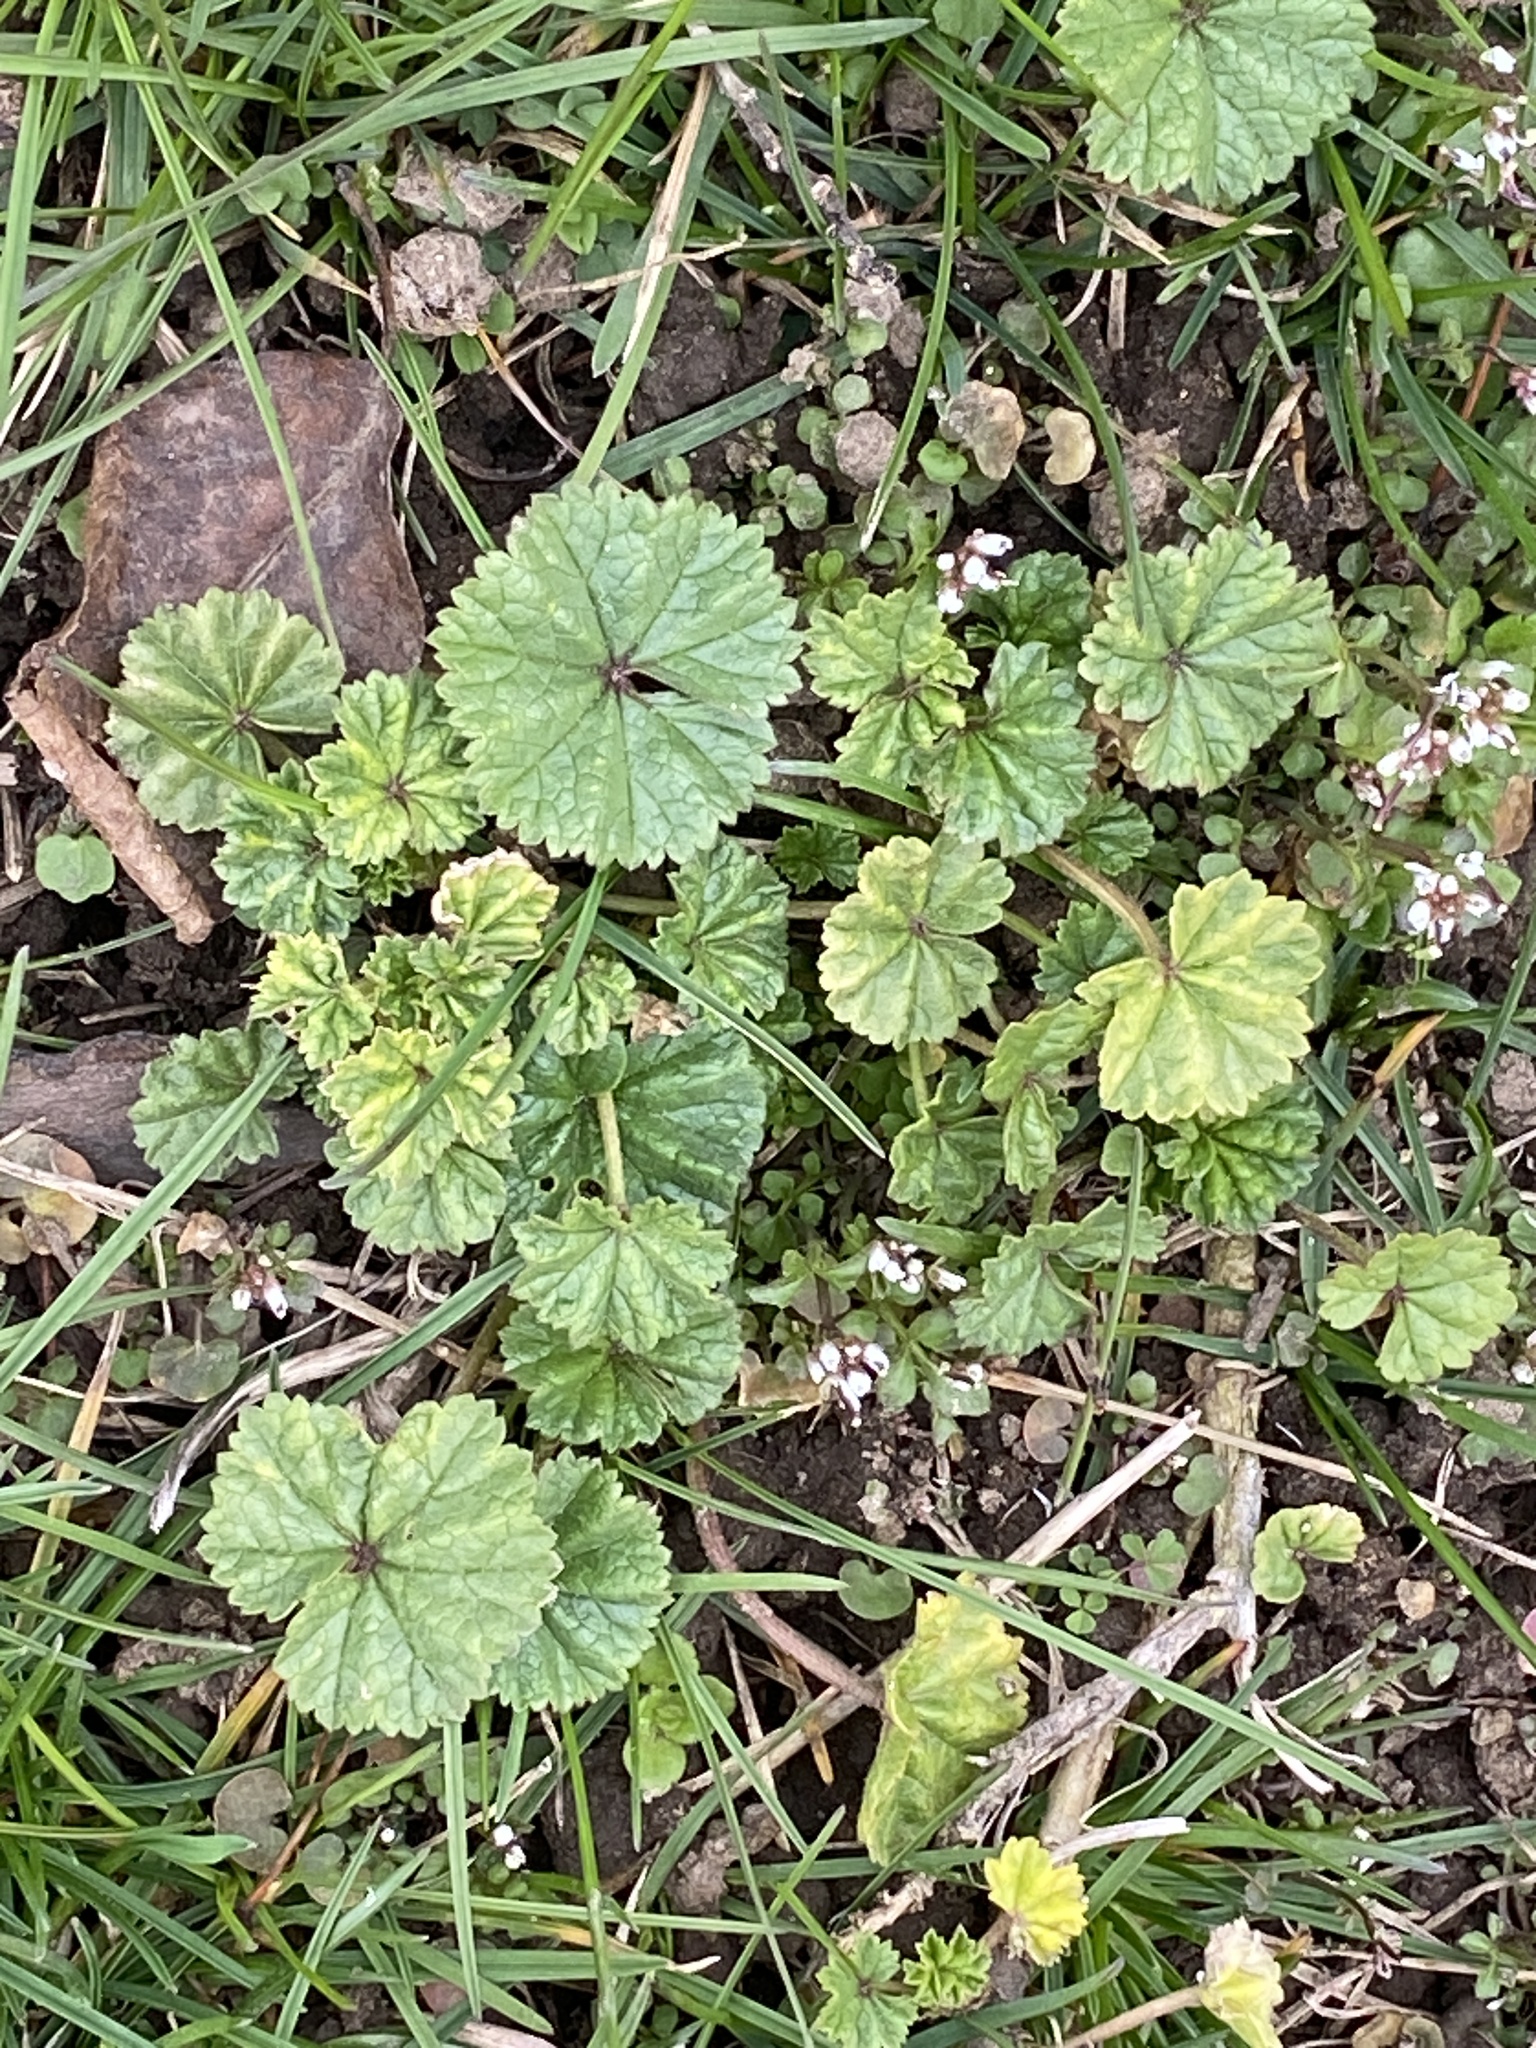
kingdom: Plantae
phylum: Tracheophyta
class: Magnoliopsida
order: Malvales
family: Malvaceae
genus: Malva
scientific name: Malva neglecta
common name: Common mallow
